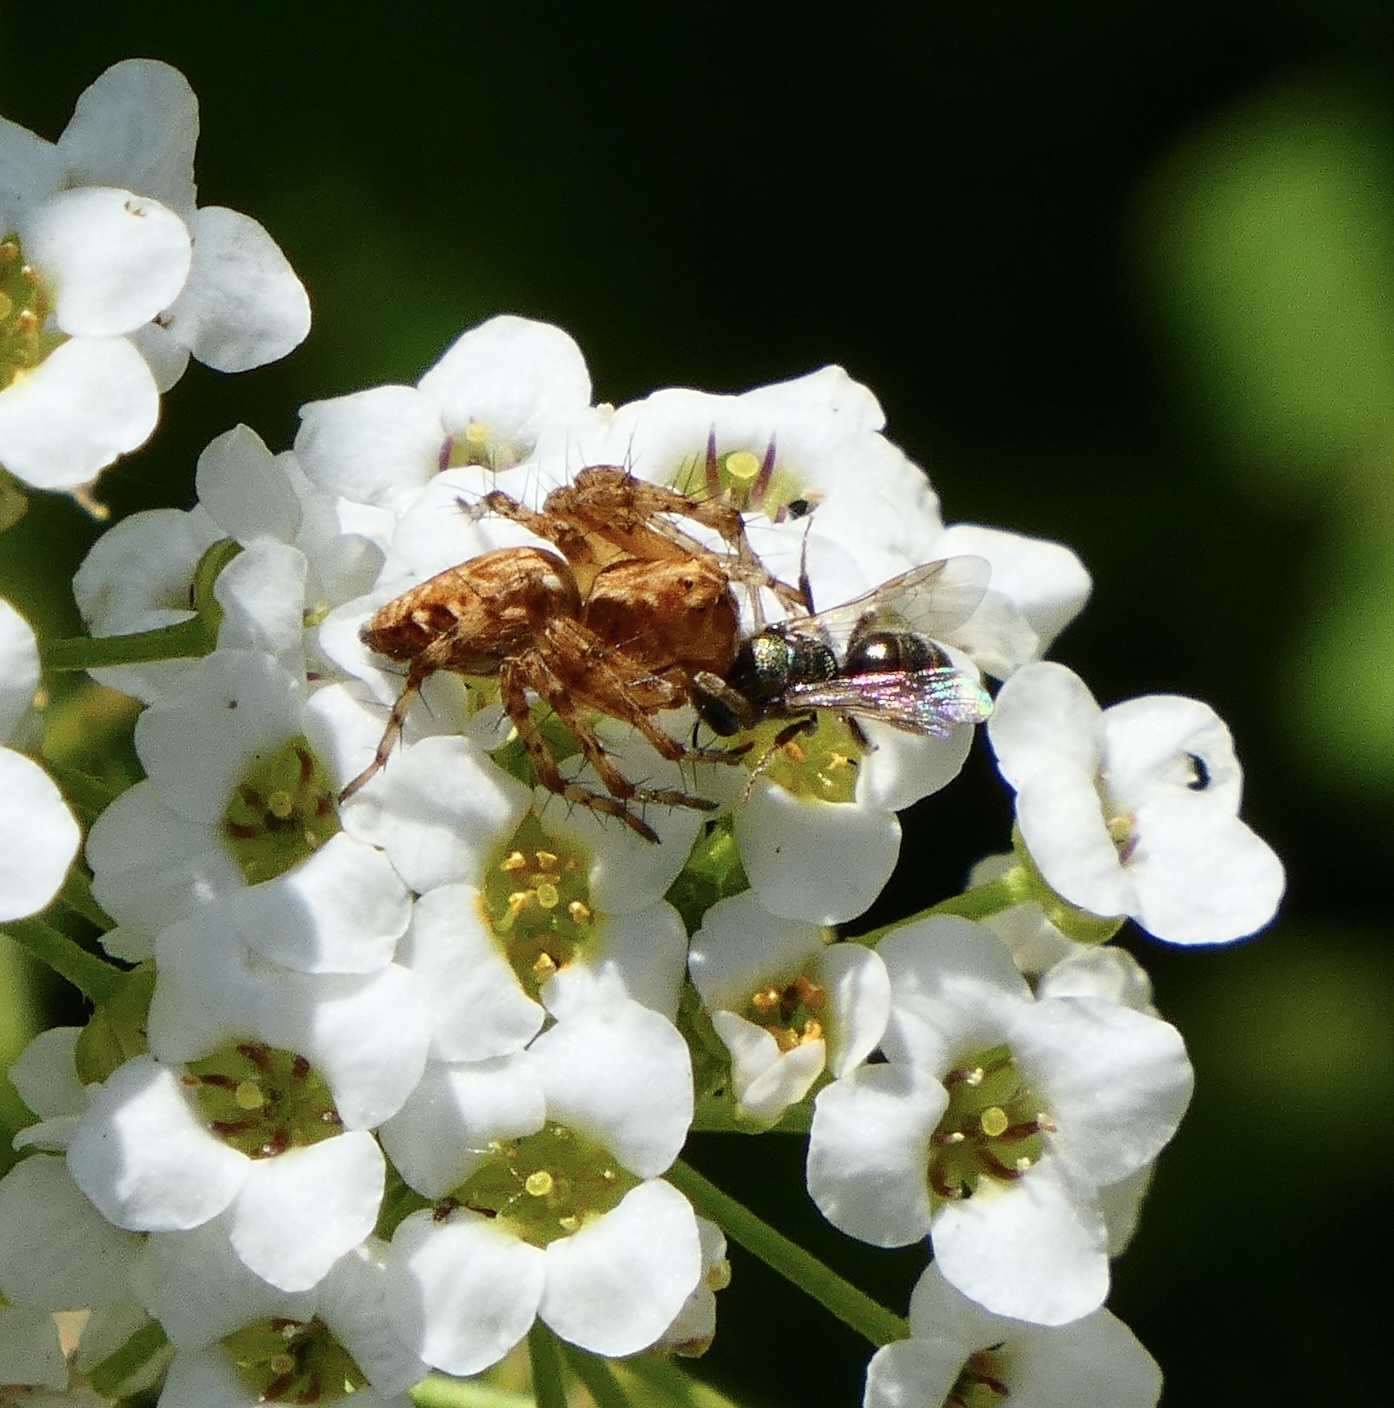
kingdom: Animalia
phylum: Arthropoda
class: Arachnida
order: Araneae
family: Oxyopidae
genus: Oxyopes
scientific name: Oxyopes scalaris
